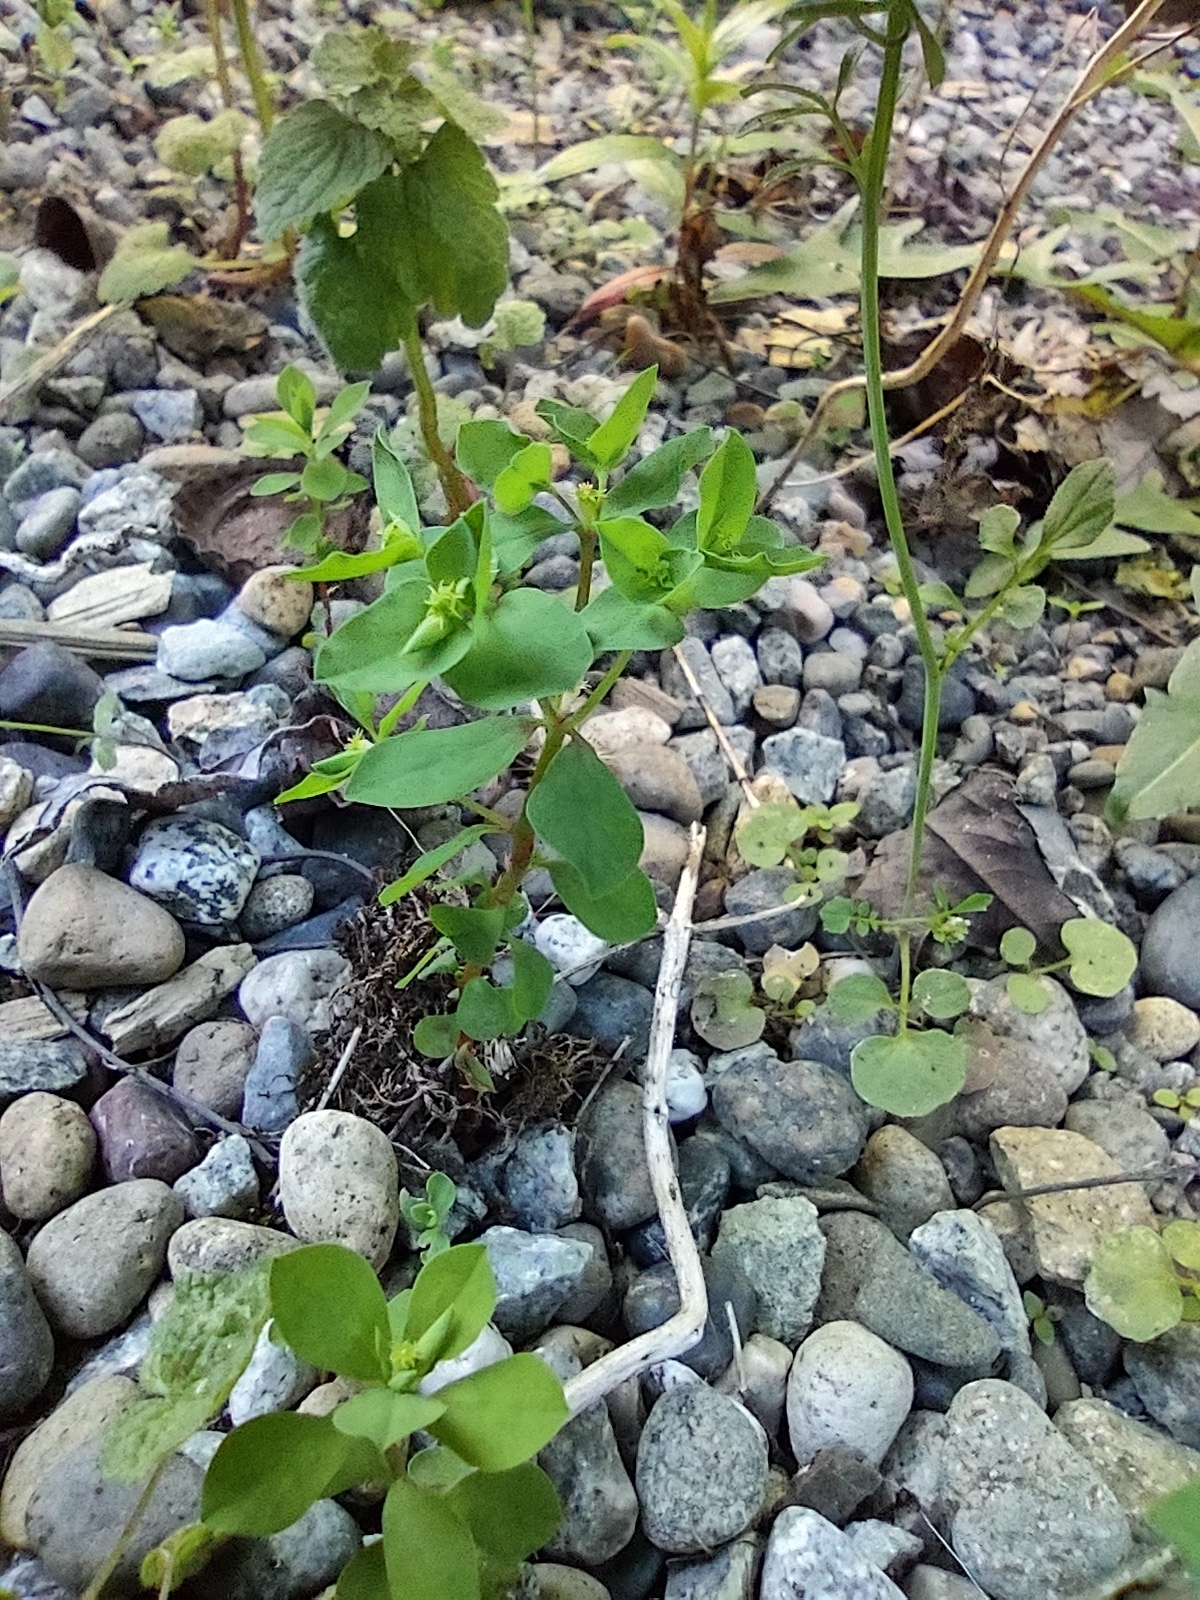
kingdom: Plantae
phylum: Tracheophyta
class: Magnoliopsida
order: Malpighiales
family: Euphorbiaceae
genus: Euphorbia
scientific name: Euphorbia peplus
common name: Petty spurge
